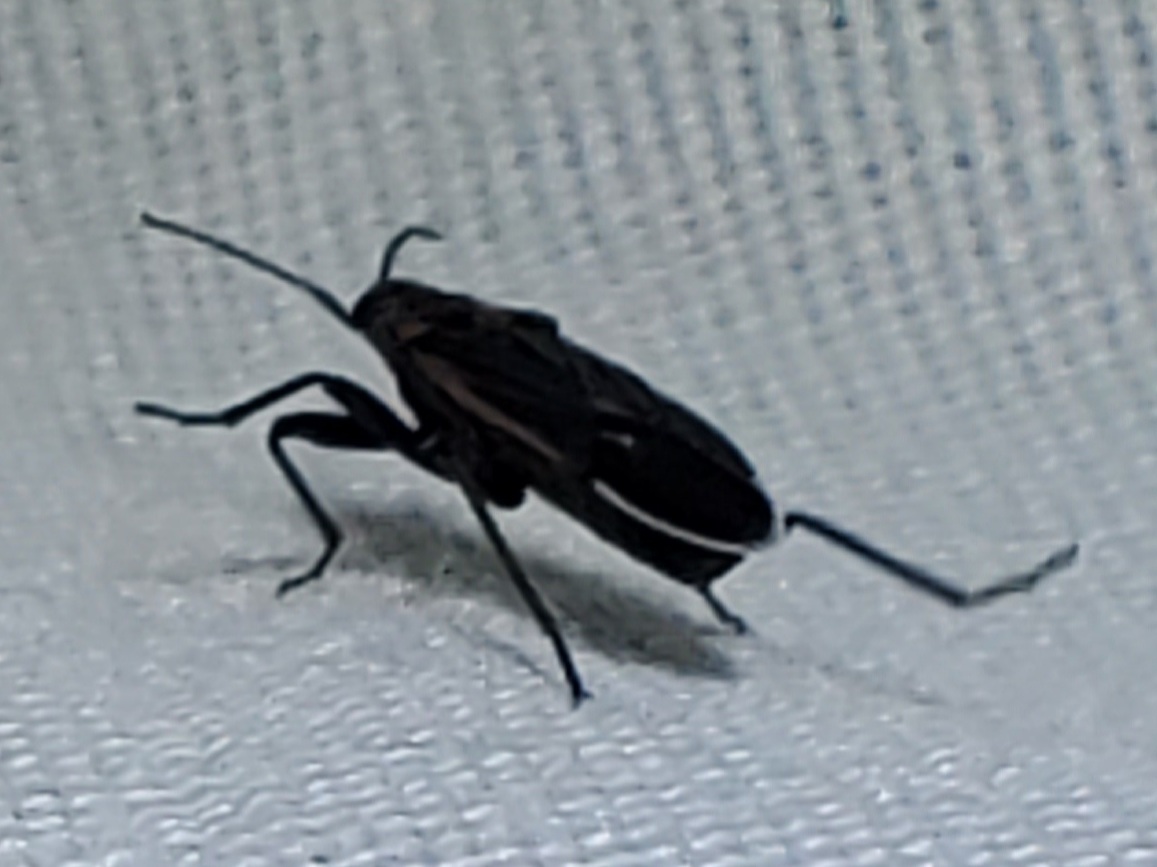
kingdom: Animalia
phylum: Arthropoda
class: Insecta
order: Hemiptera
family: Lygaeidae
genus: Melacoryphus
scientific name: Melacoryphus lateralis
